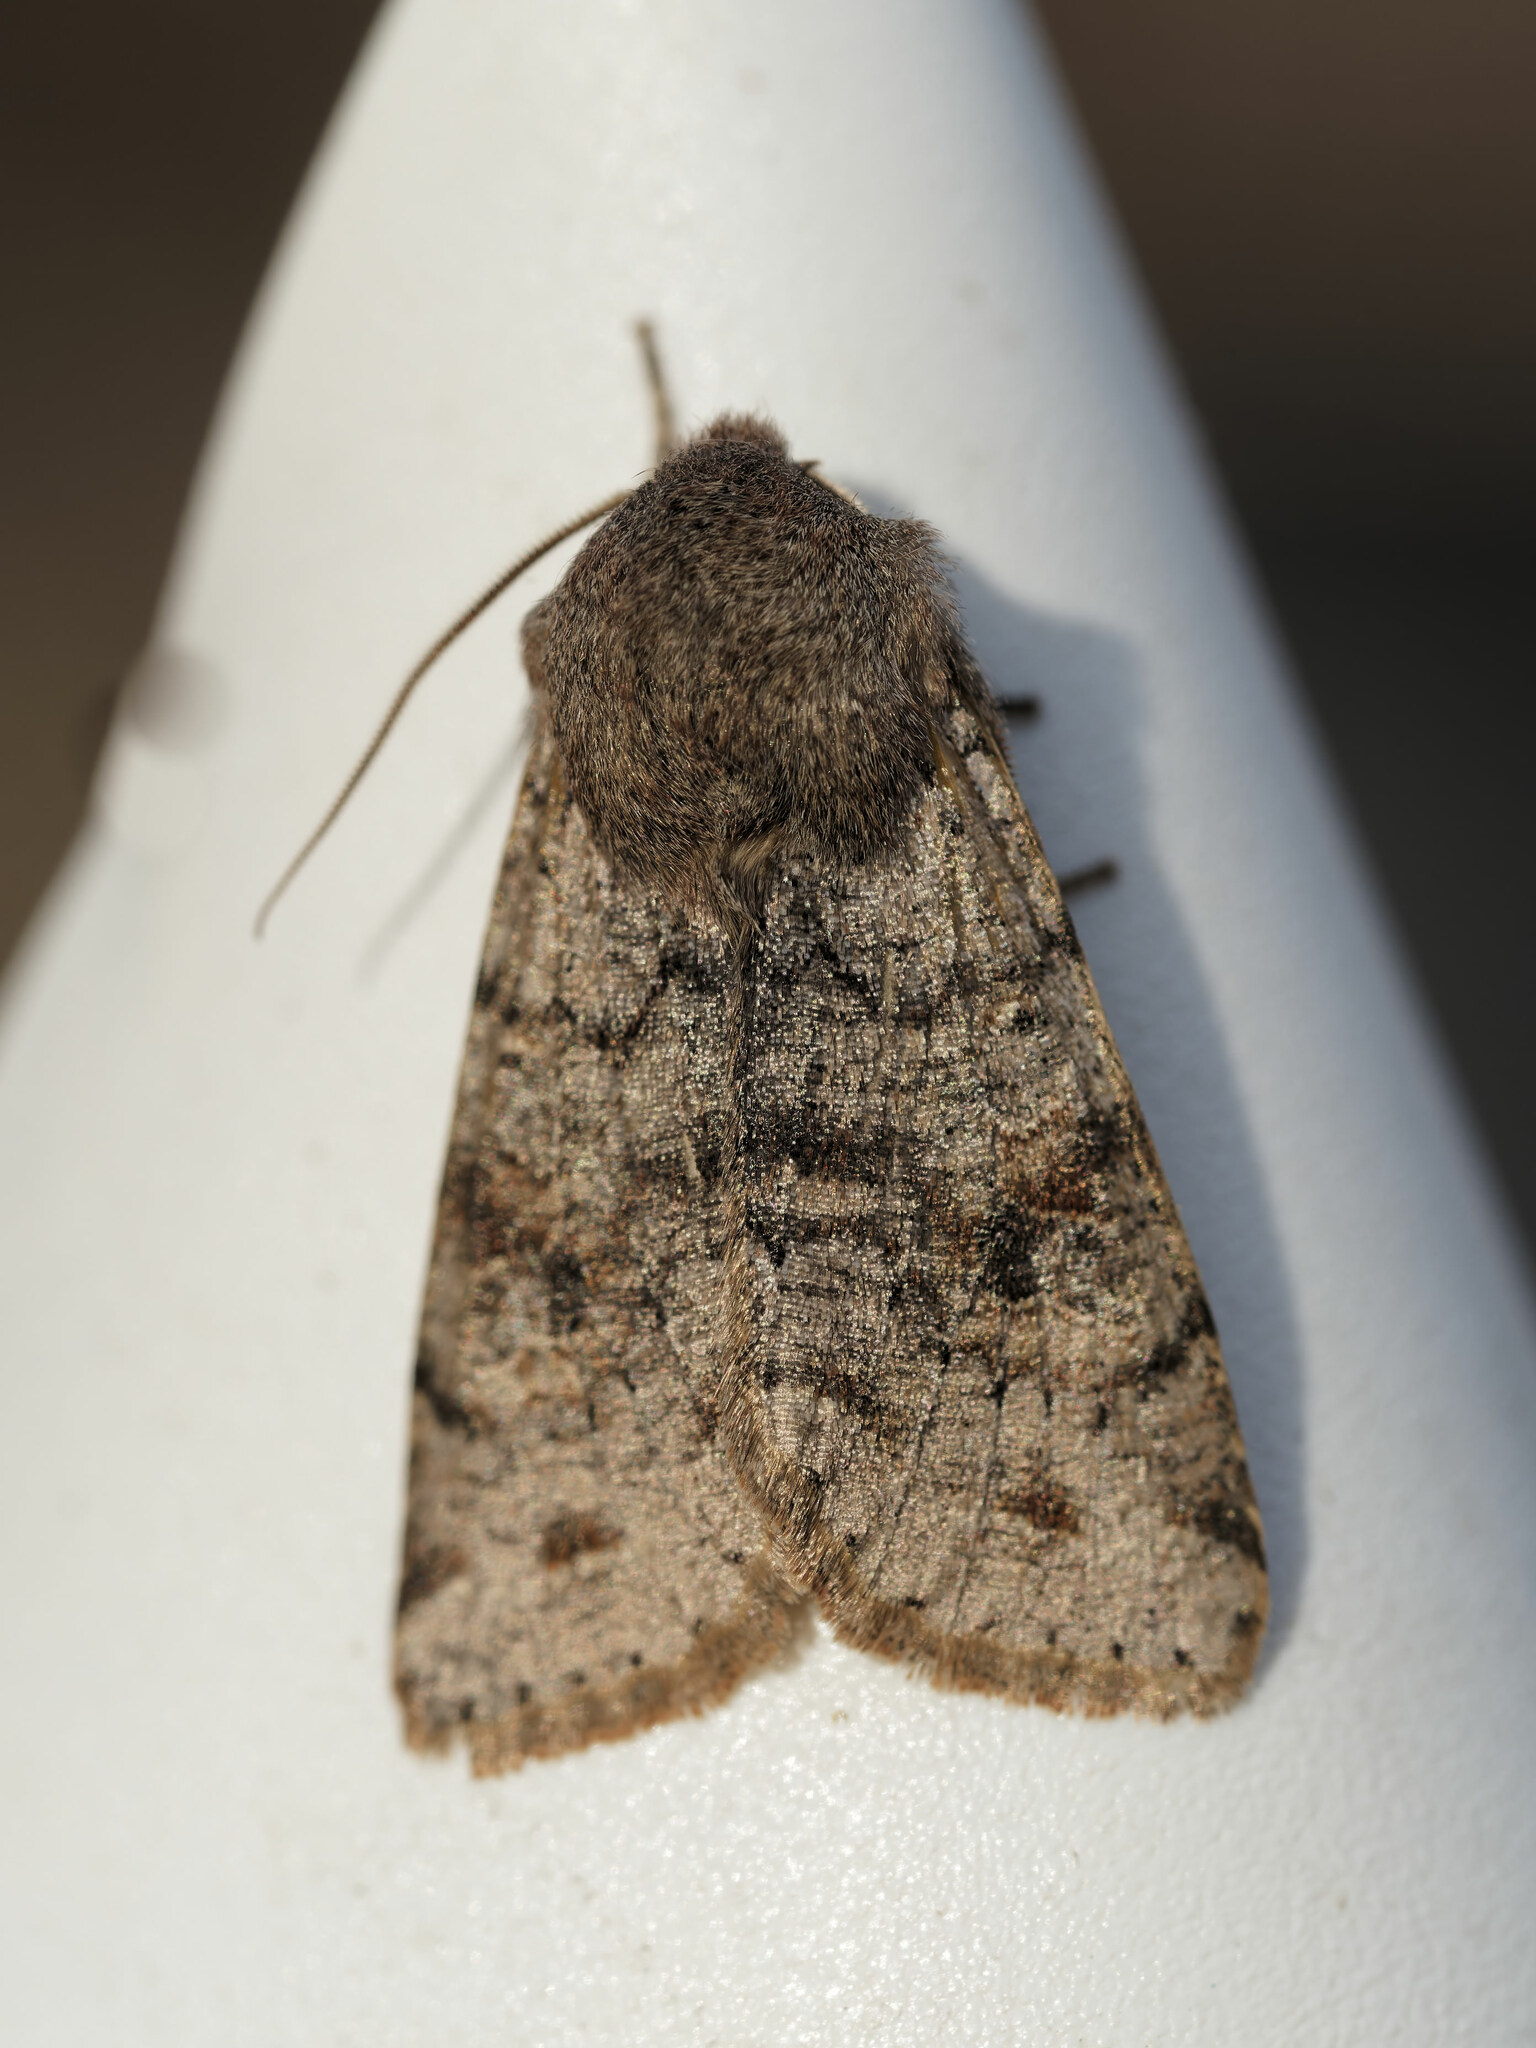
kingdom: Animalia
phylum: Arthropoda
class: Insecta
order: Lepidoptera
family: Noctuidae
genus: Orthosia
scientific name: Orthosia incerta
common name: Clouded drab
